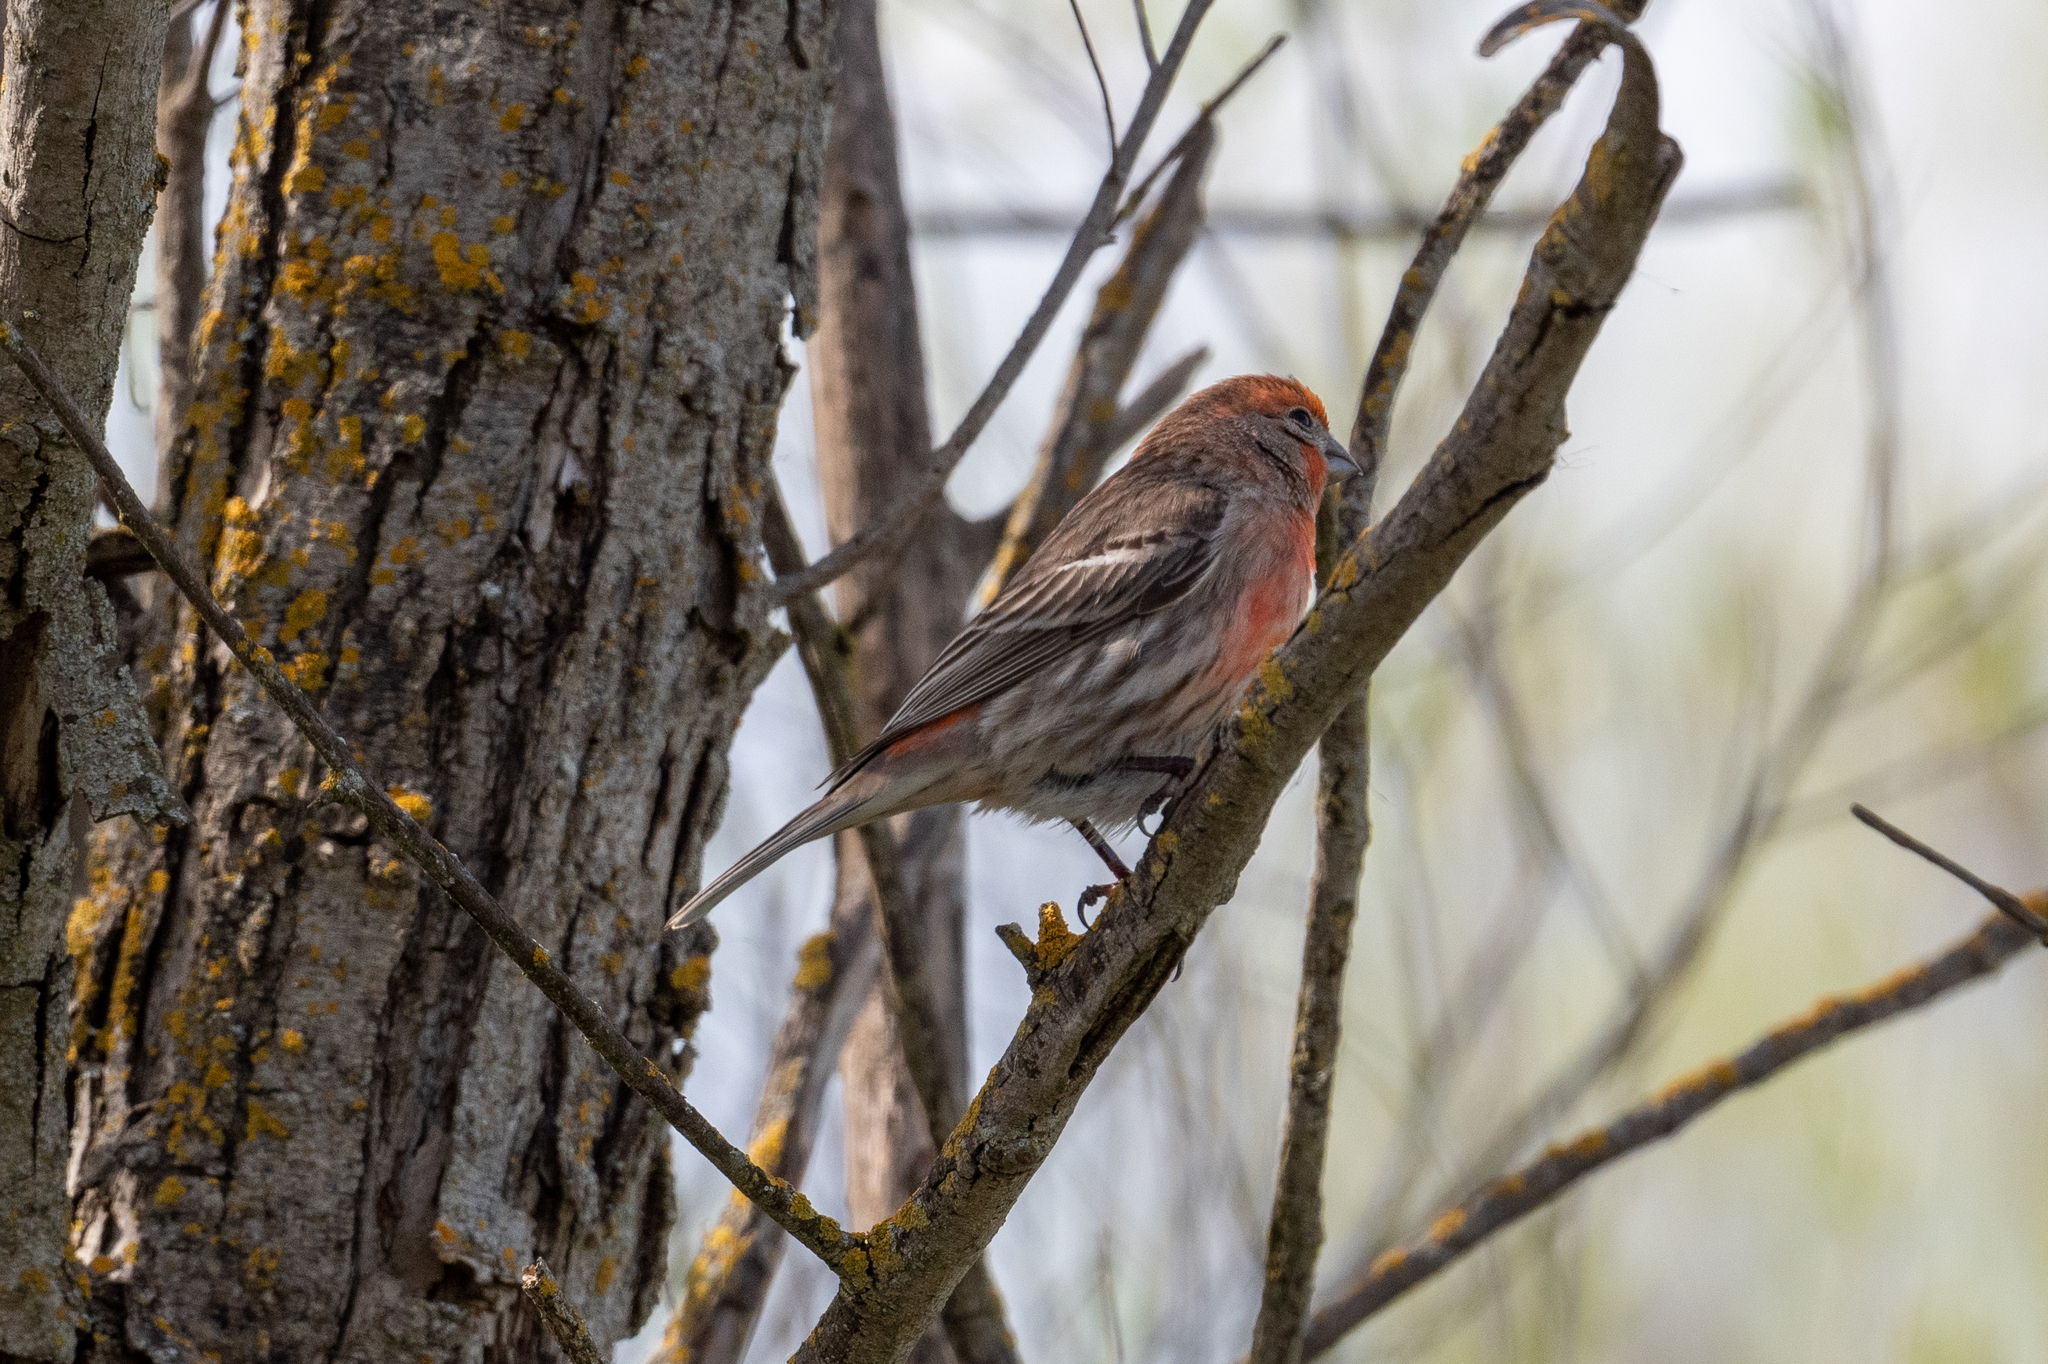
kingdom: Animalia
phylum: Chordata
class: Aves
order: Passeriformes
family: Fringillidae
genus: Haemorhous
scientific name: Haemorhous mexicanus
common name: House finch
